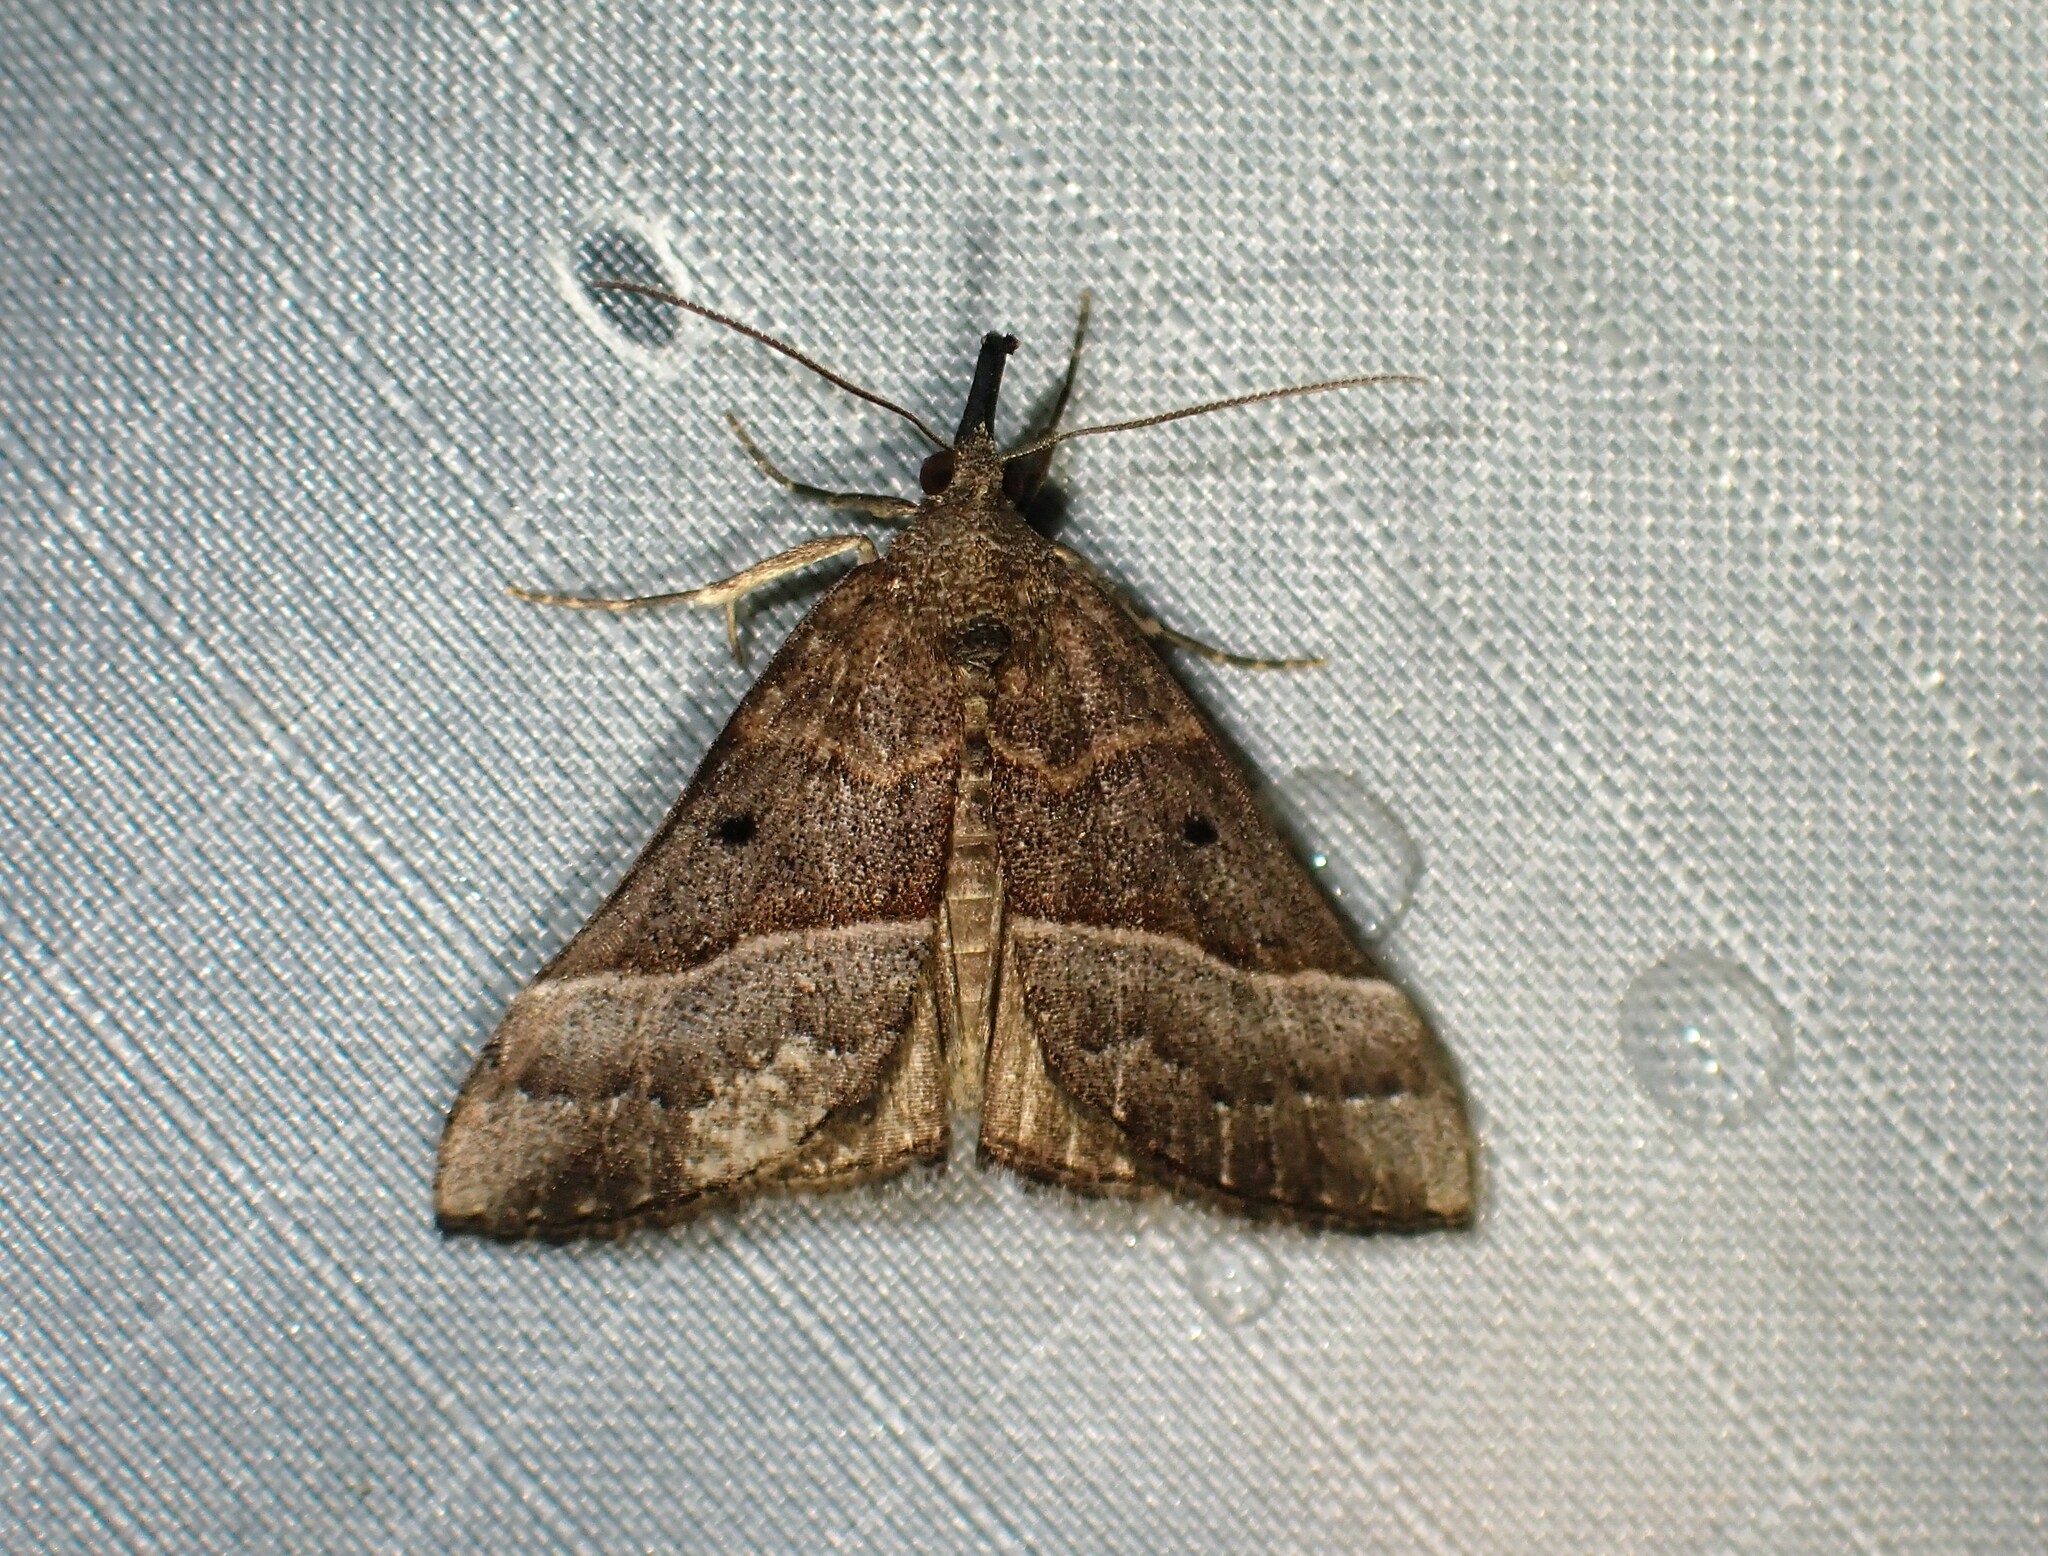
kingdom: Animalia
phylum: Arthropoda
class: Insecta
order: Lepidoptera
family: Erebidae
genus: Hypena
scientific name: Hypena eductalis
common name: Red-footed snout
